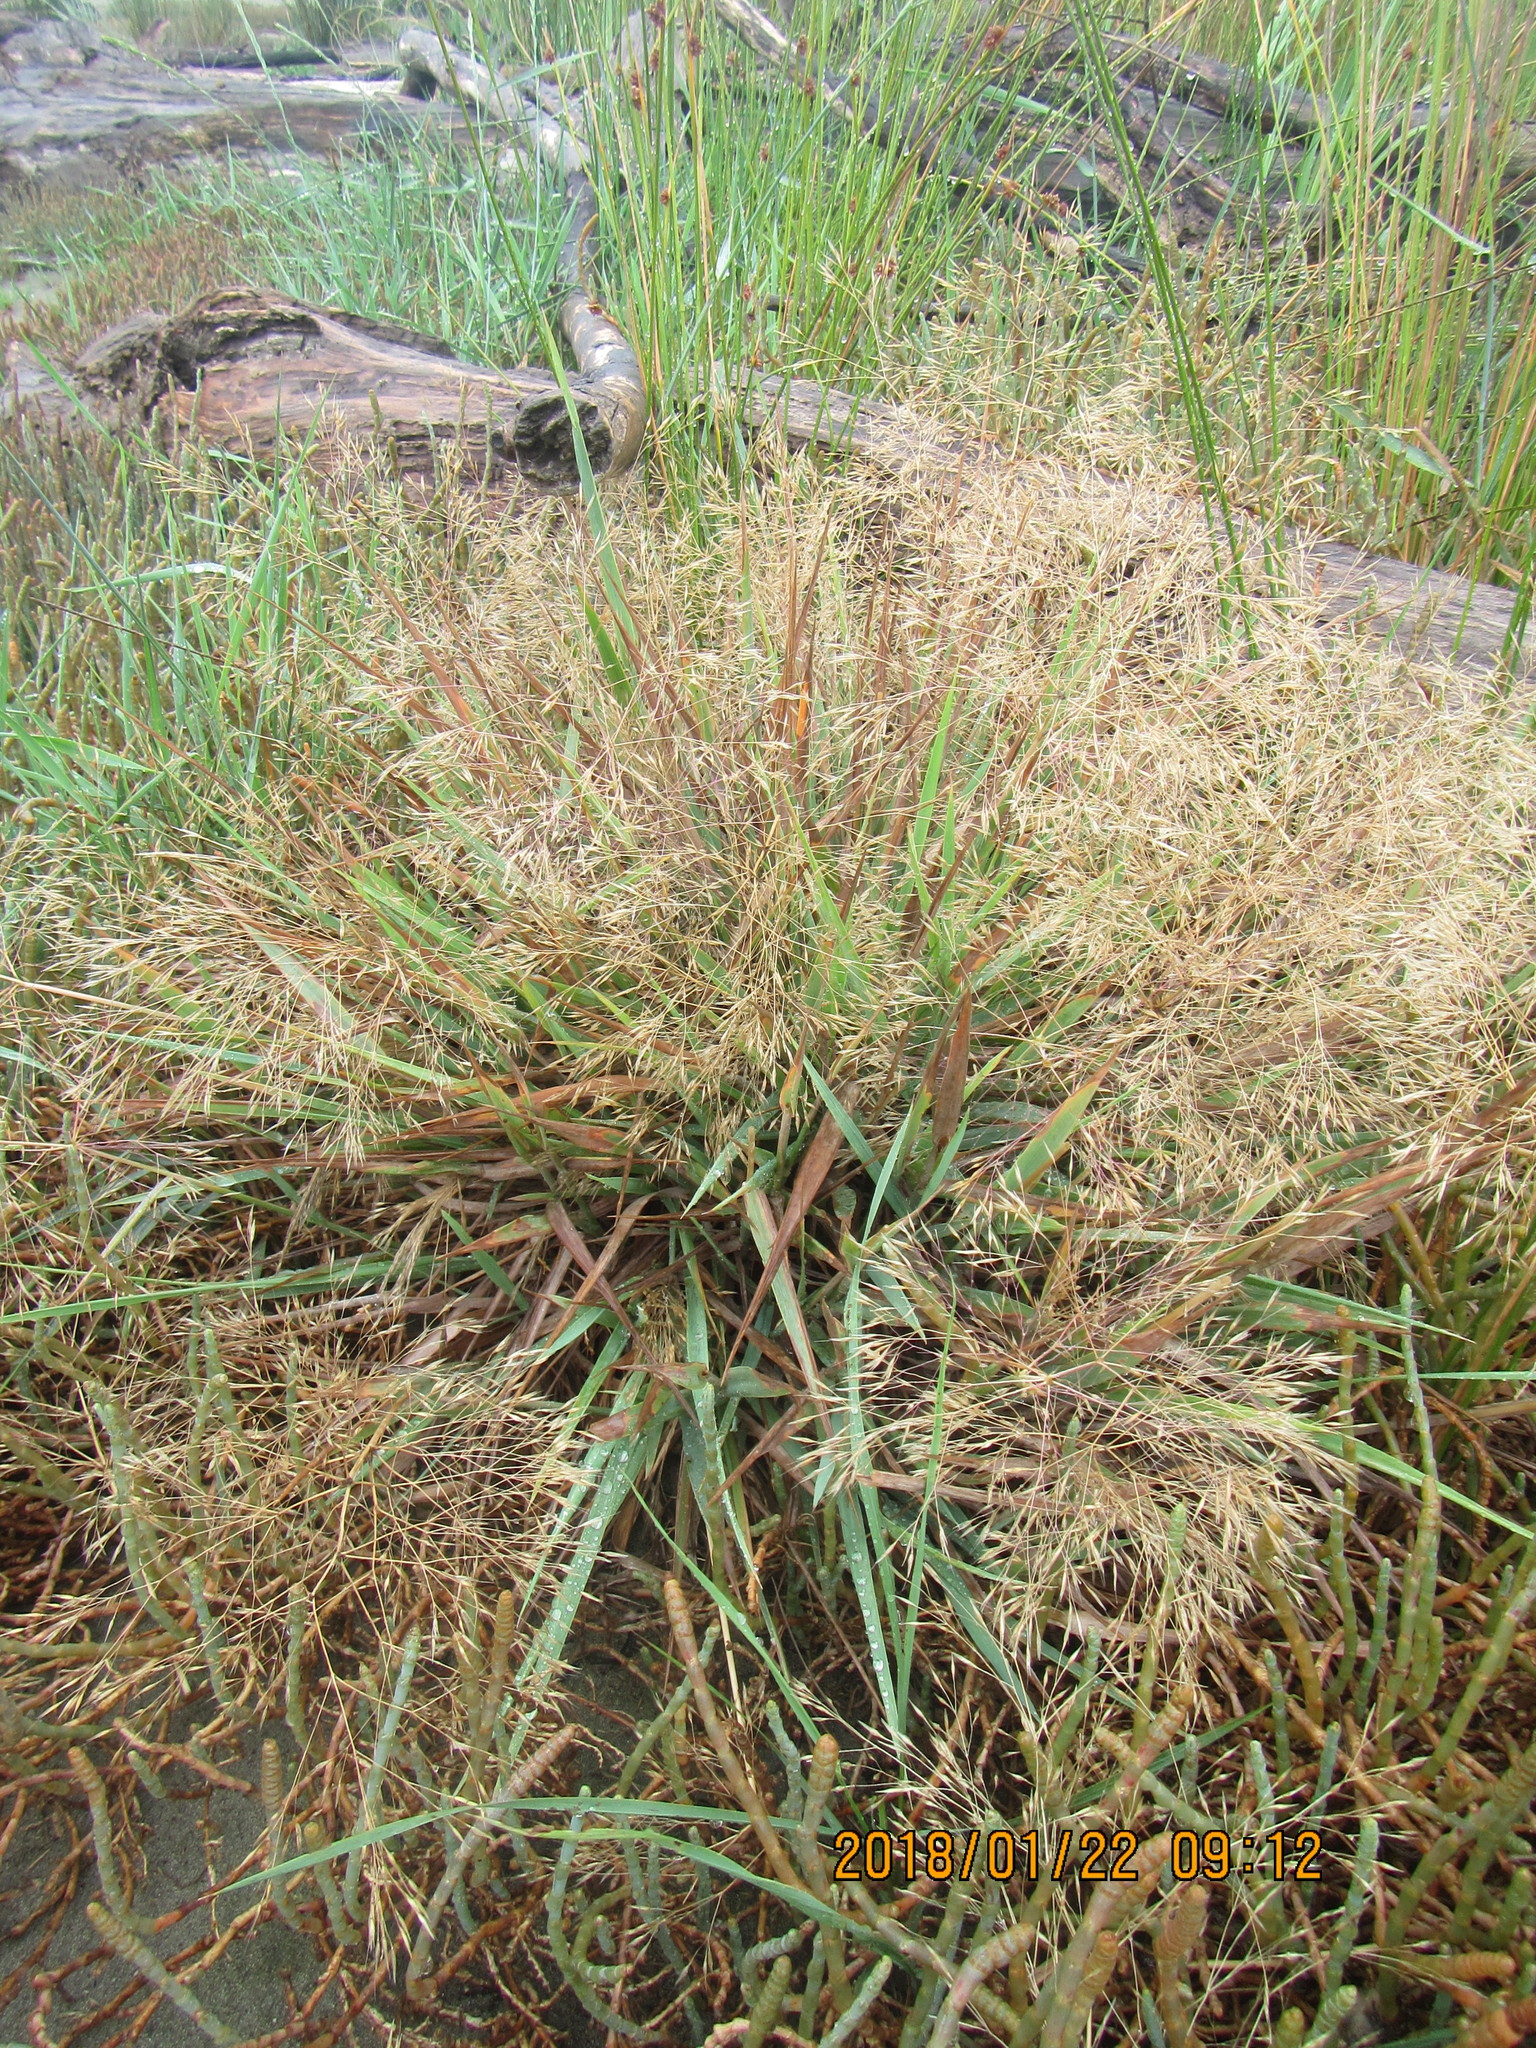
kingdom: Plantae
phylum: Tracheophyta
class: Liliopsida
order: Poales
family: Poaceae
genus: Lachnagrostis
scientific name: Lachnagrostis billardierei
